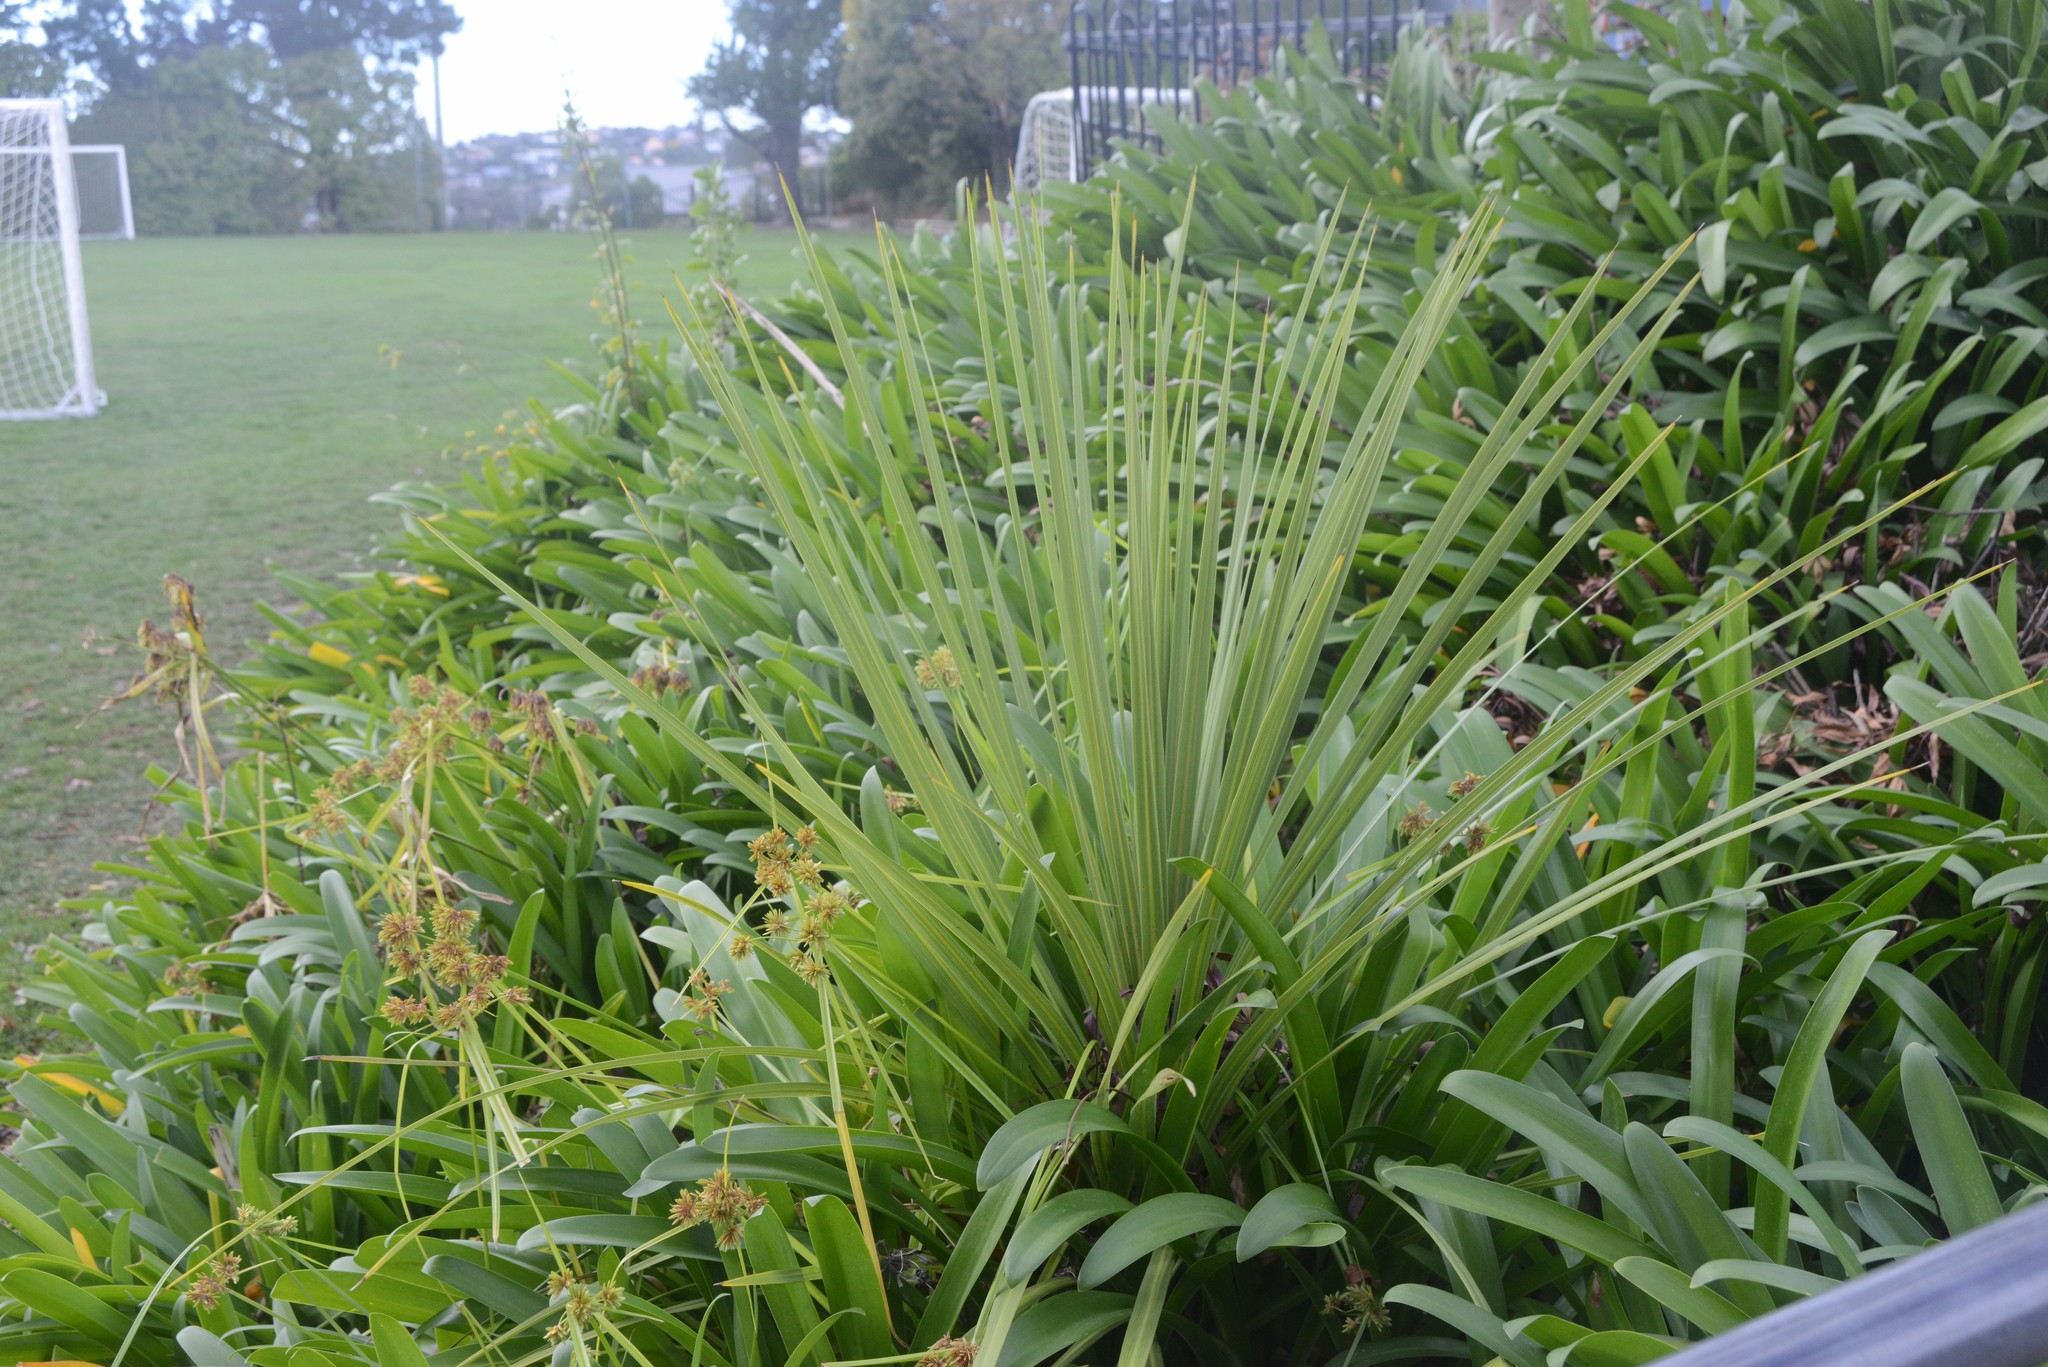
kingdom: Plantae
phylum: Tracheophyta
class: Liliopsida
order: Asparagales
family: Asparagaceae
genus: Cordyline
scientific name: Cordyline australis
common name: Cabbage-palm
